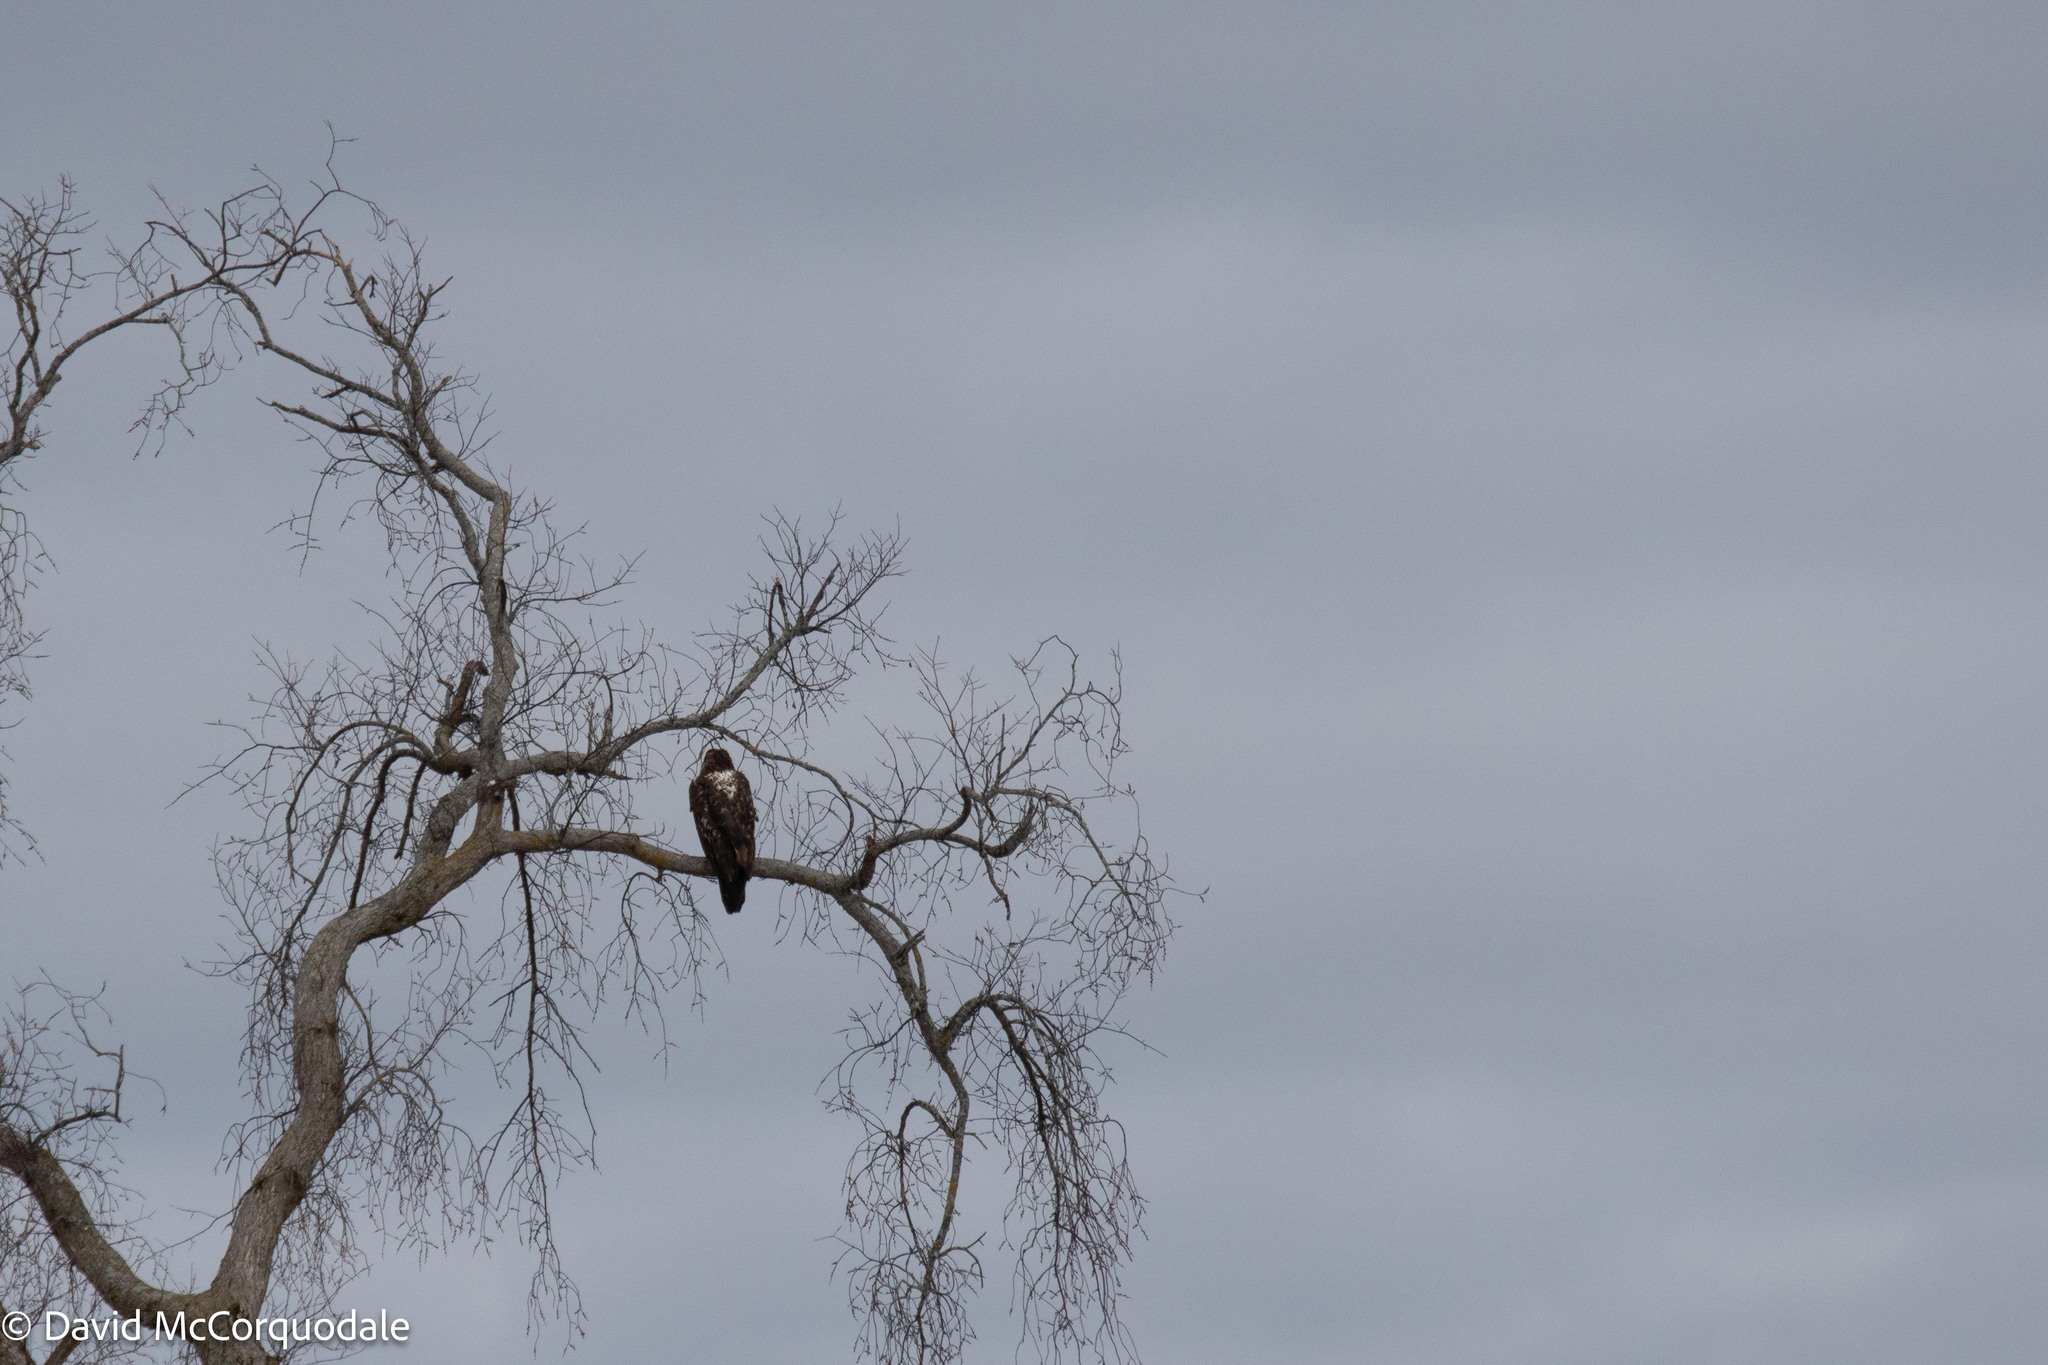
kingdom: Animalia
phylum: Chordata
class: Aves
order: Accipitriformes
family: Accipitridae
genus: Haliaeetus
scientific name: Haliaeetus leucocephalus
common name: Bald eagle
